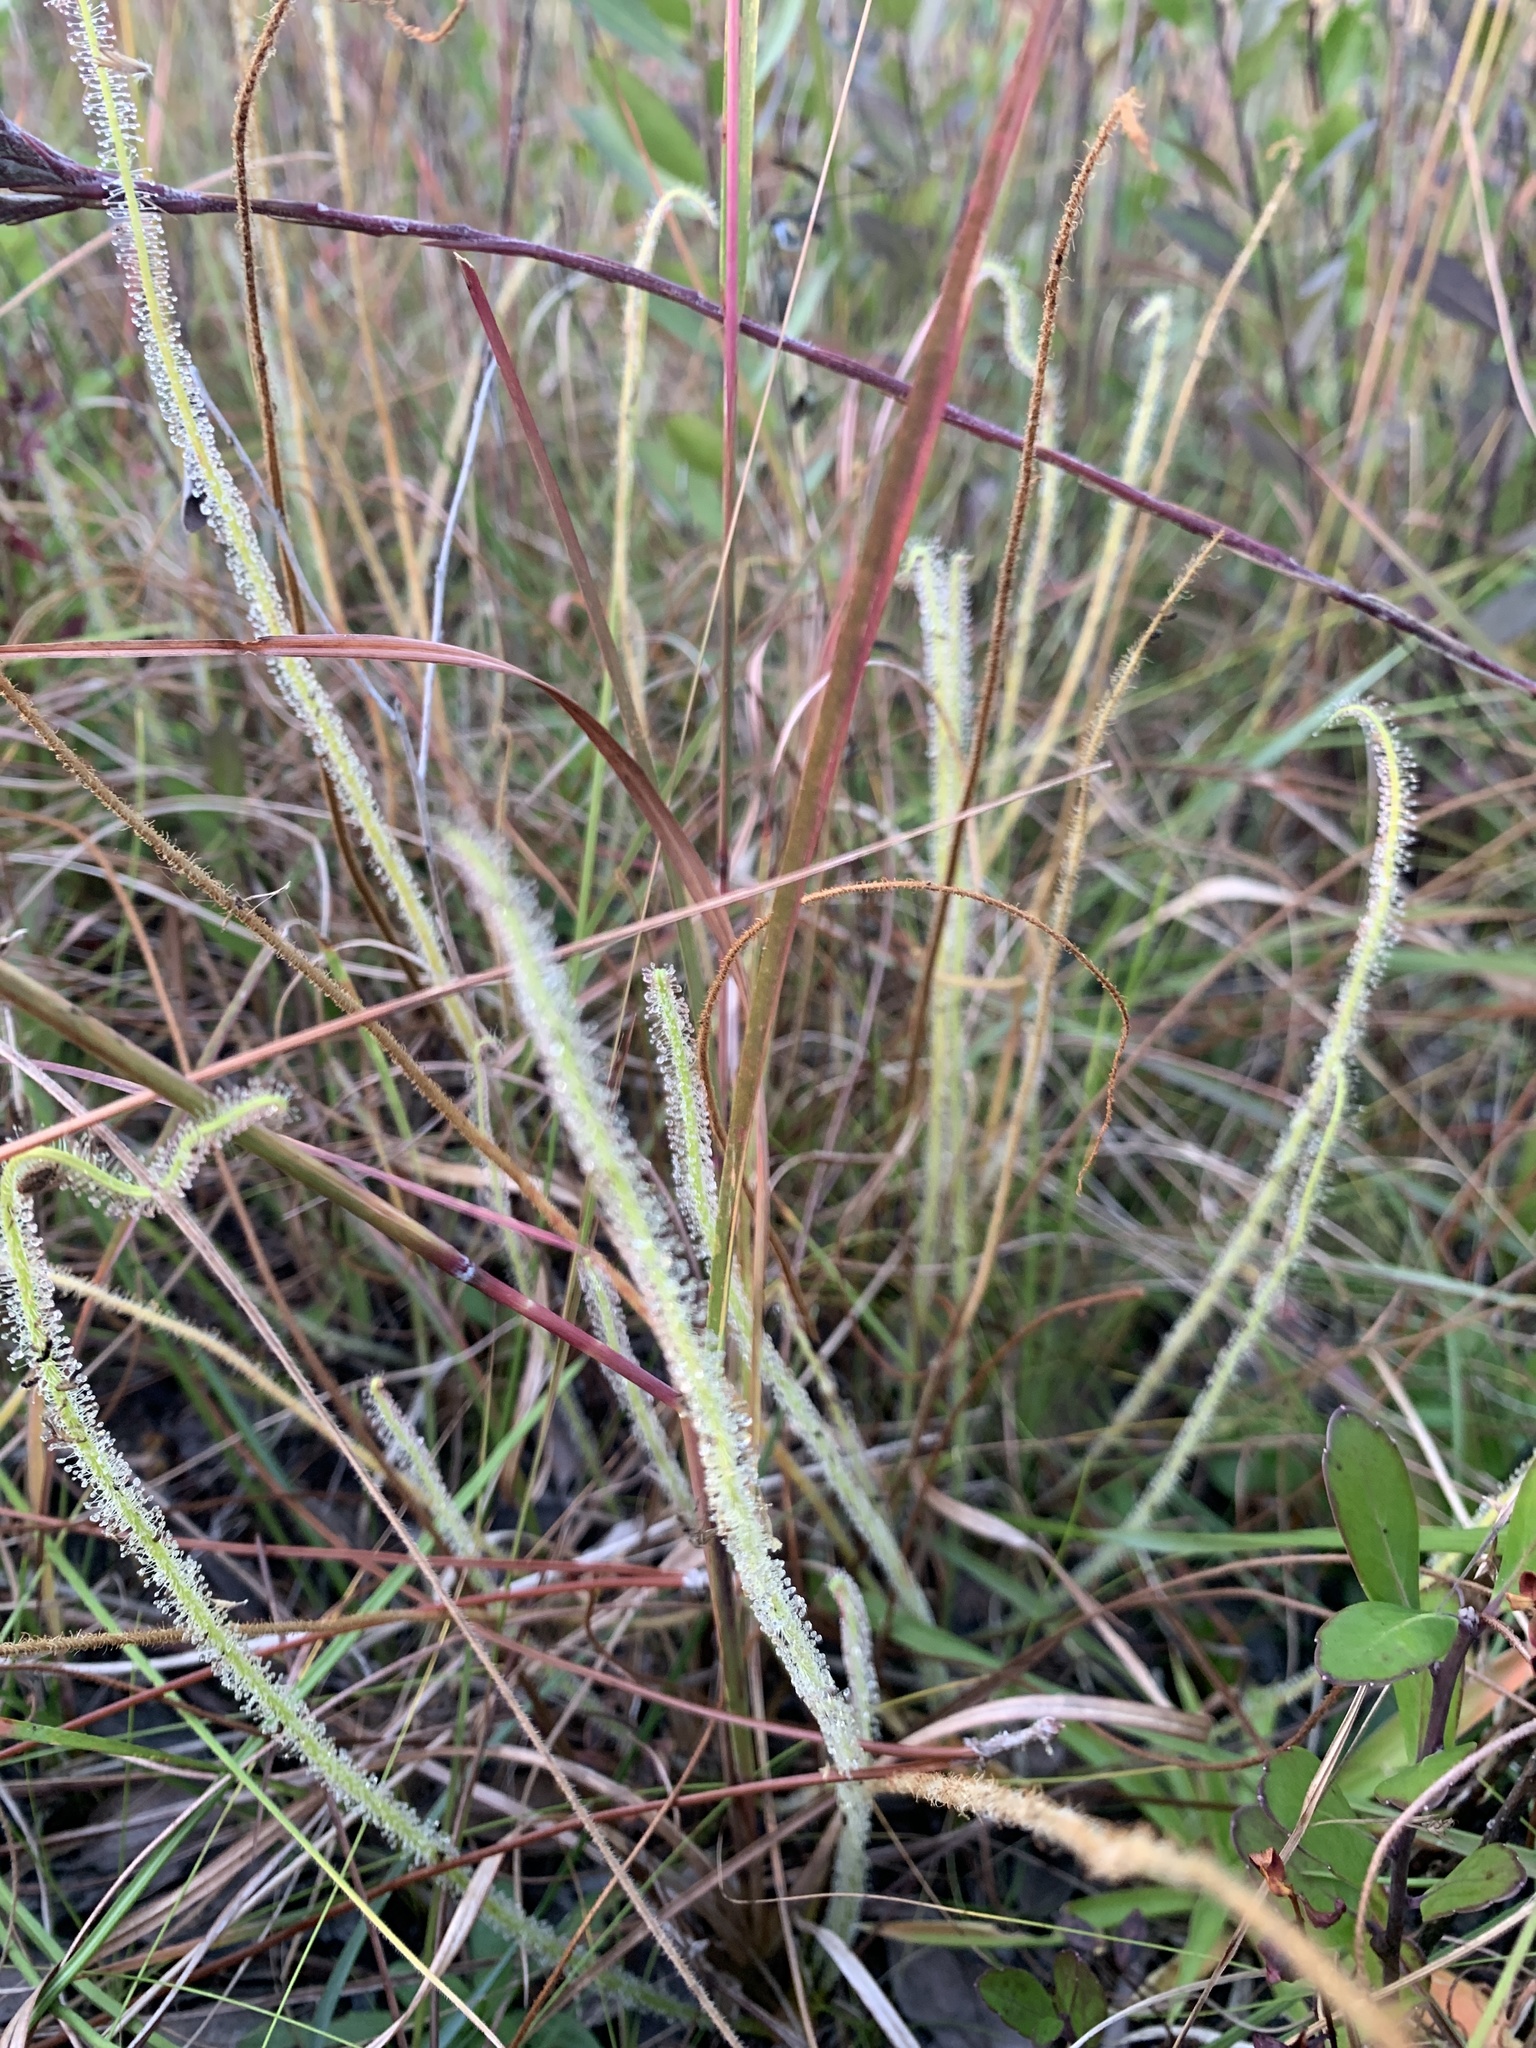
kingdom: Plantae
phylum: Tracheophyta
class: Magnoliopsida
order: Caryophyllales
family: Droseraceae
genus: Drosera
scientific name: Drosera filiformis
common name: Dew-thread
